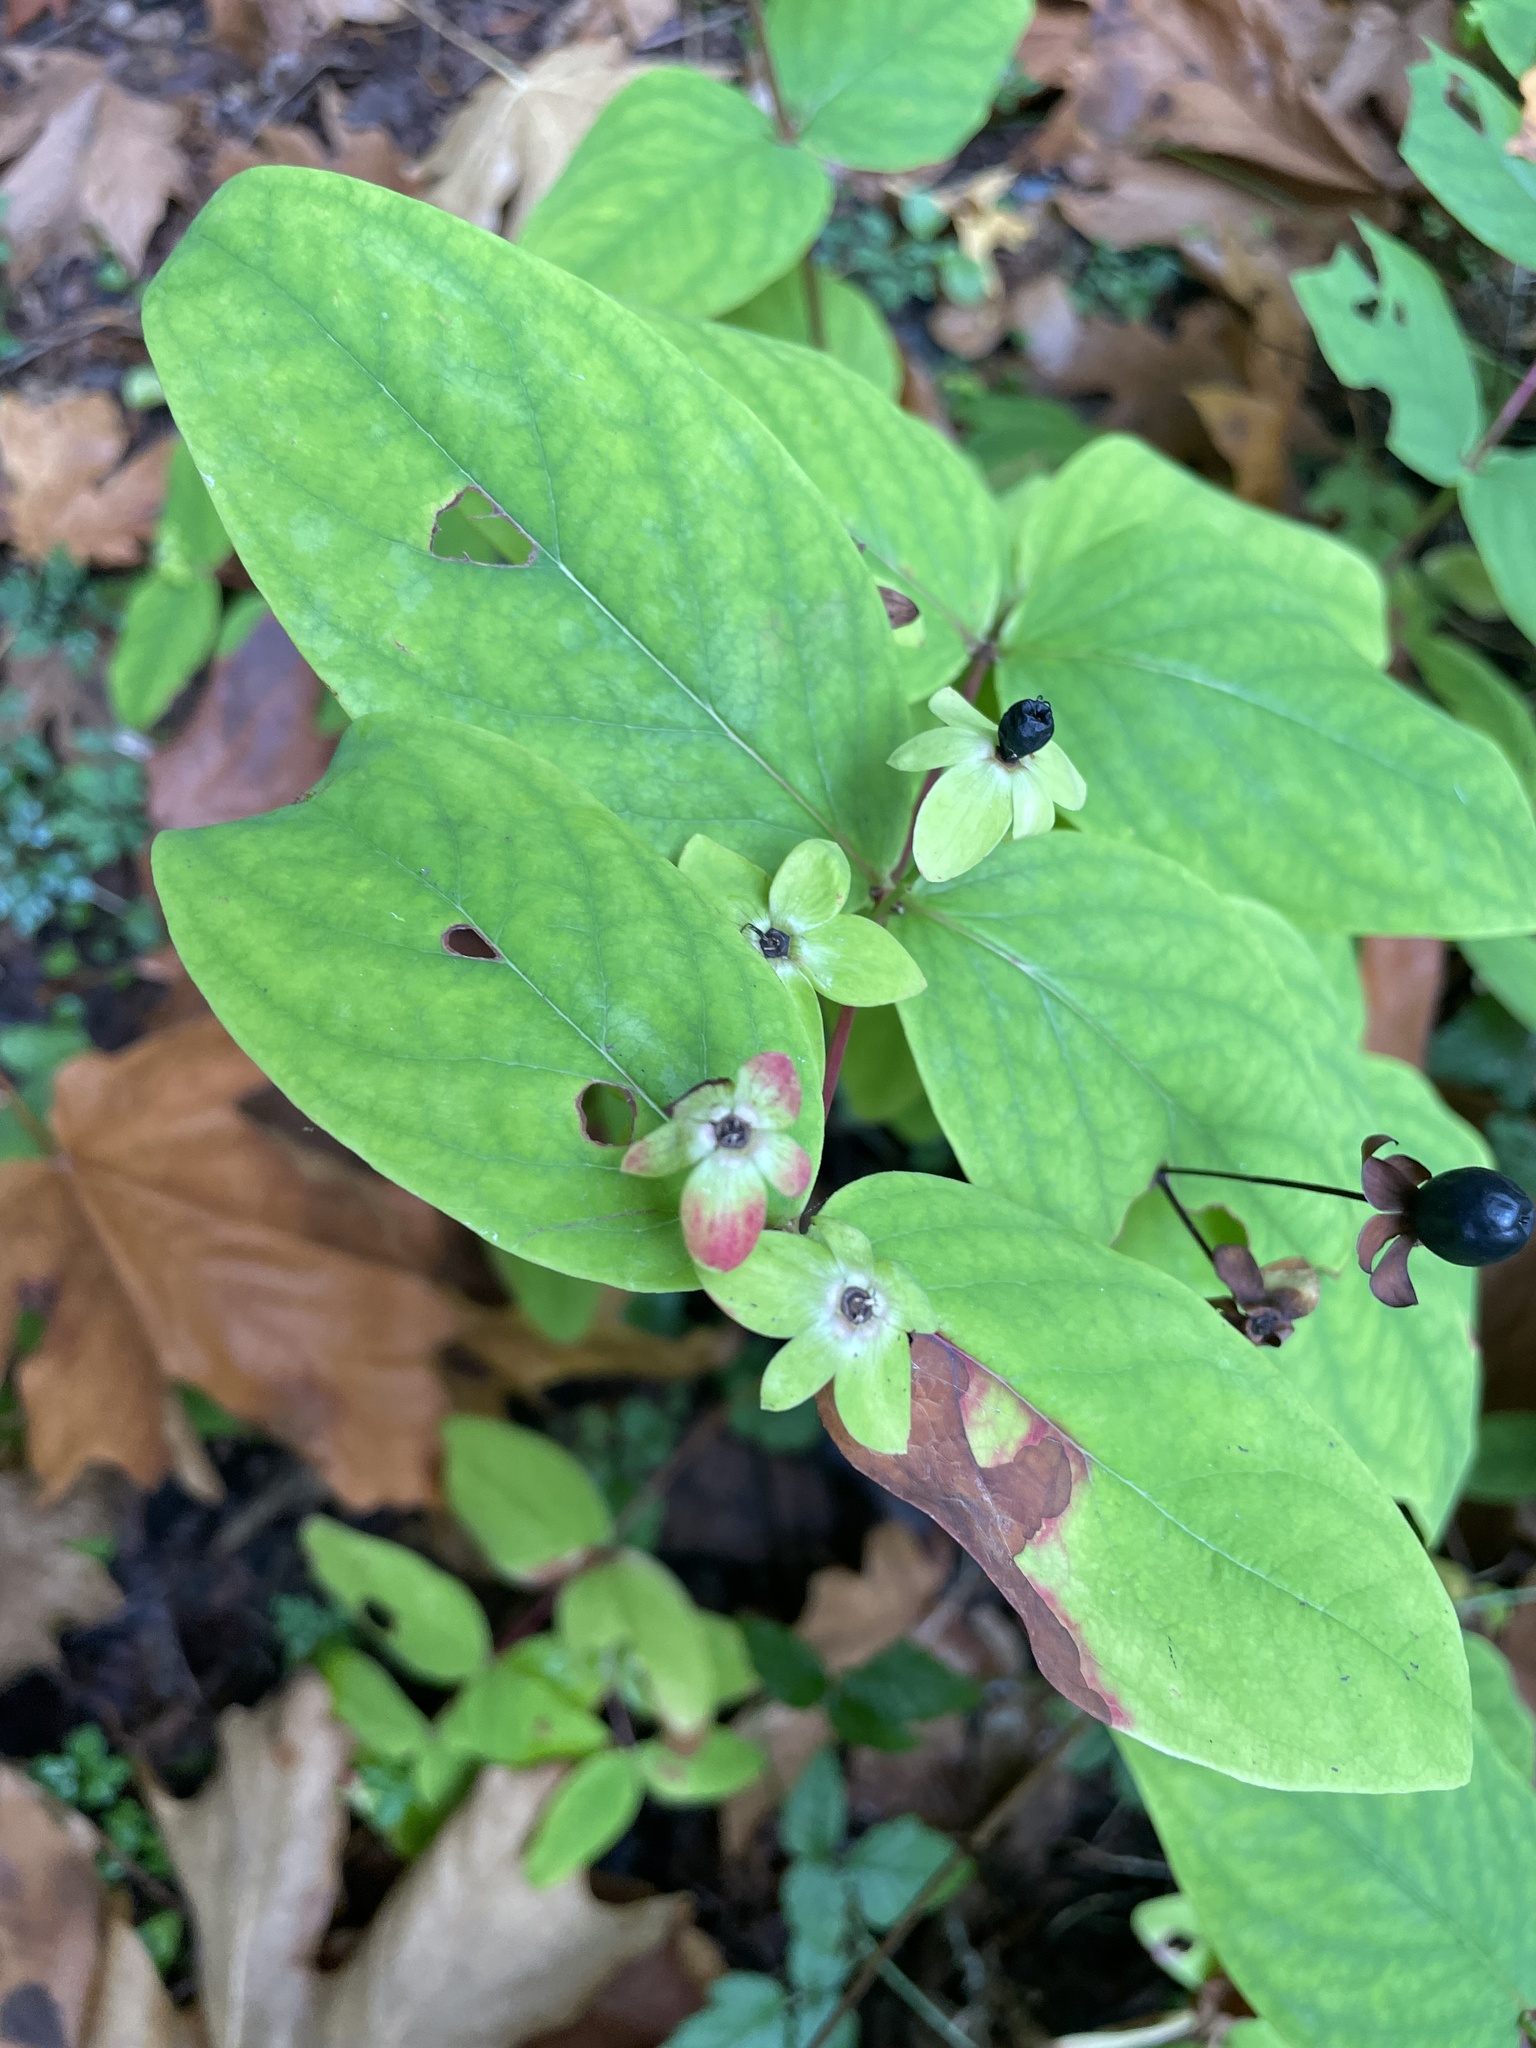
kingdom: Plantae
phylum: Tracheophyta
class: Magnoliopsida
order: Malpighiales
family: Hypericaceae
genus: Hypericum
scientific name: Hypericum androsaemum
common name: Sweet-amber
